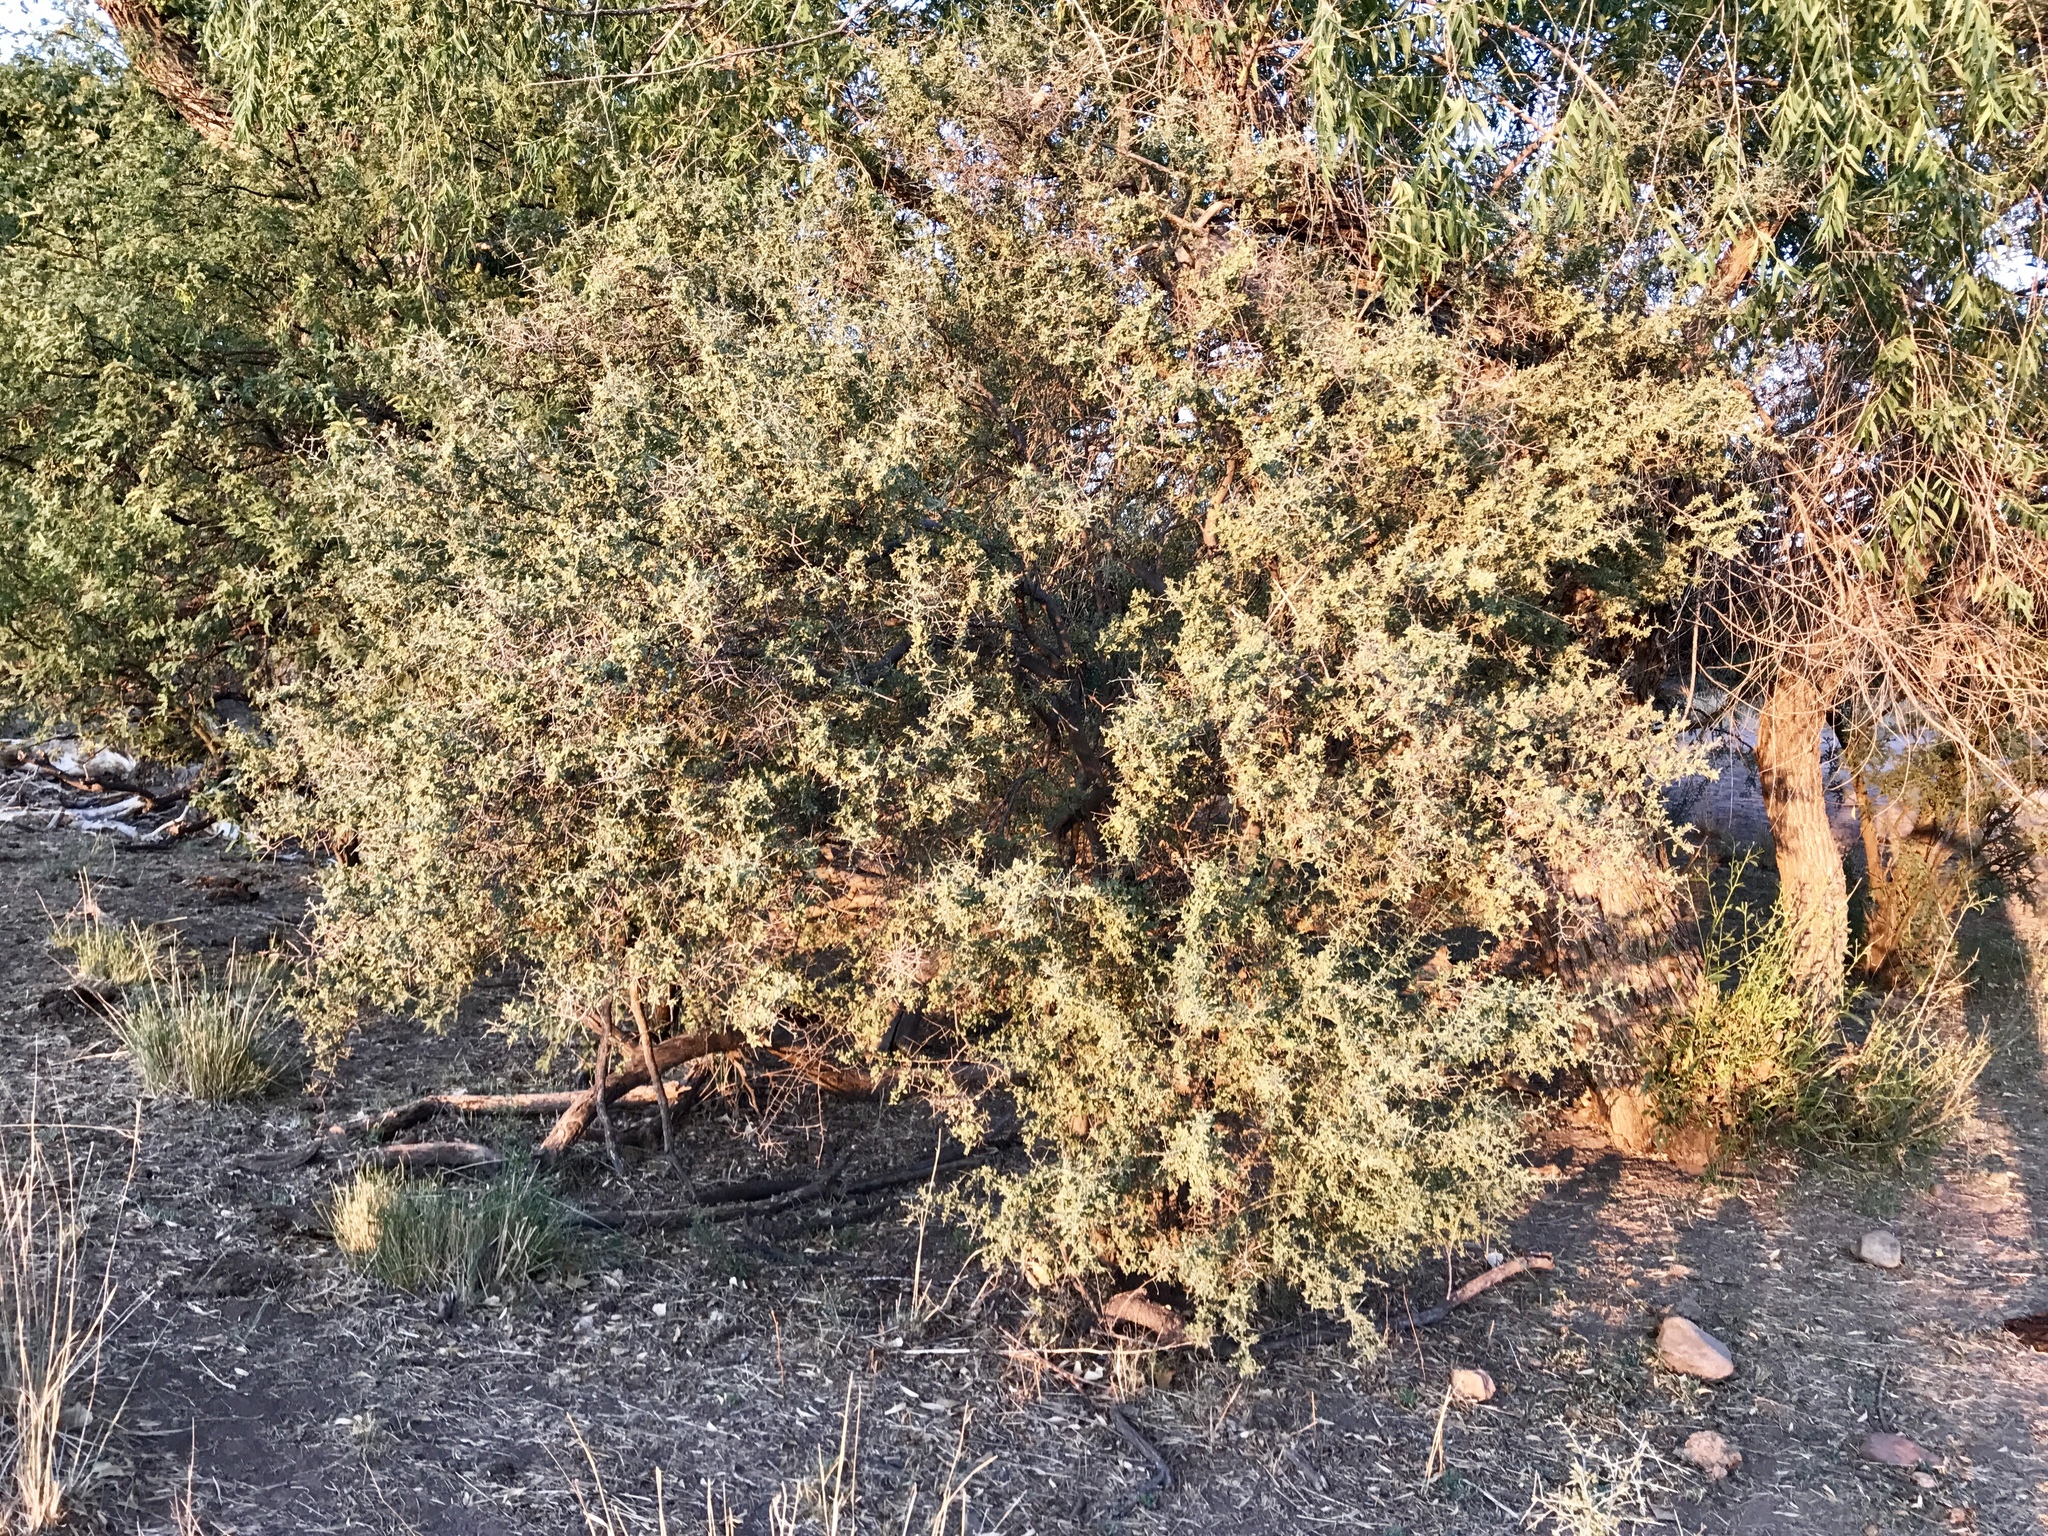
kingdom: Plantae
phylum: Tracheophyta
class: Magnoliopsida
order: Rosales
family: Rhamnaceae
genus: Sarcomphalus
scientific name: Sarcomphalus obtusifolius
